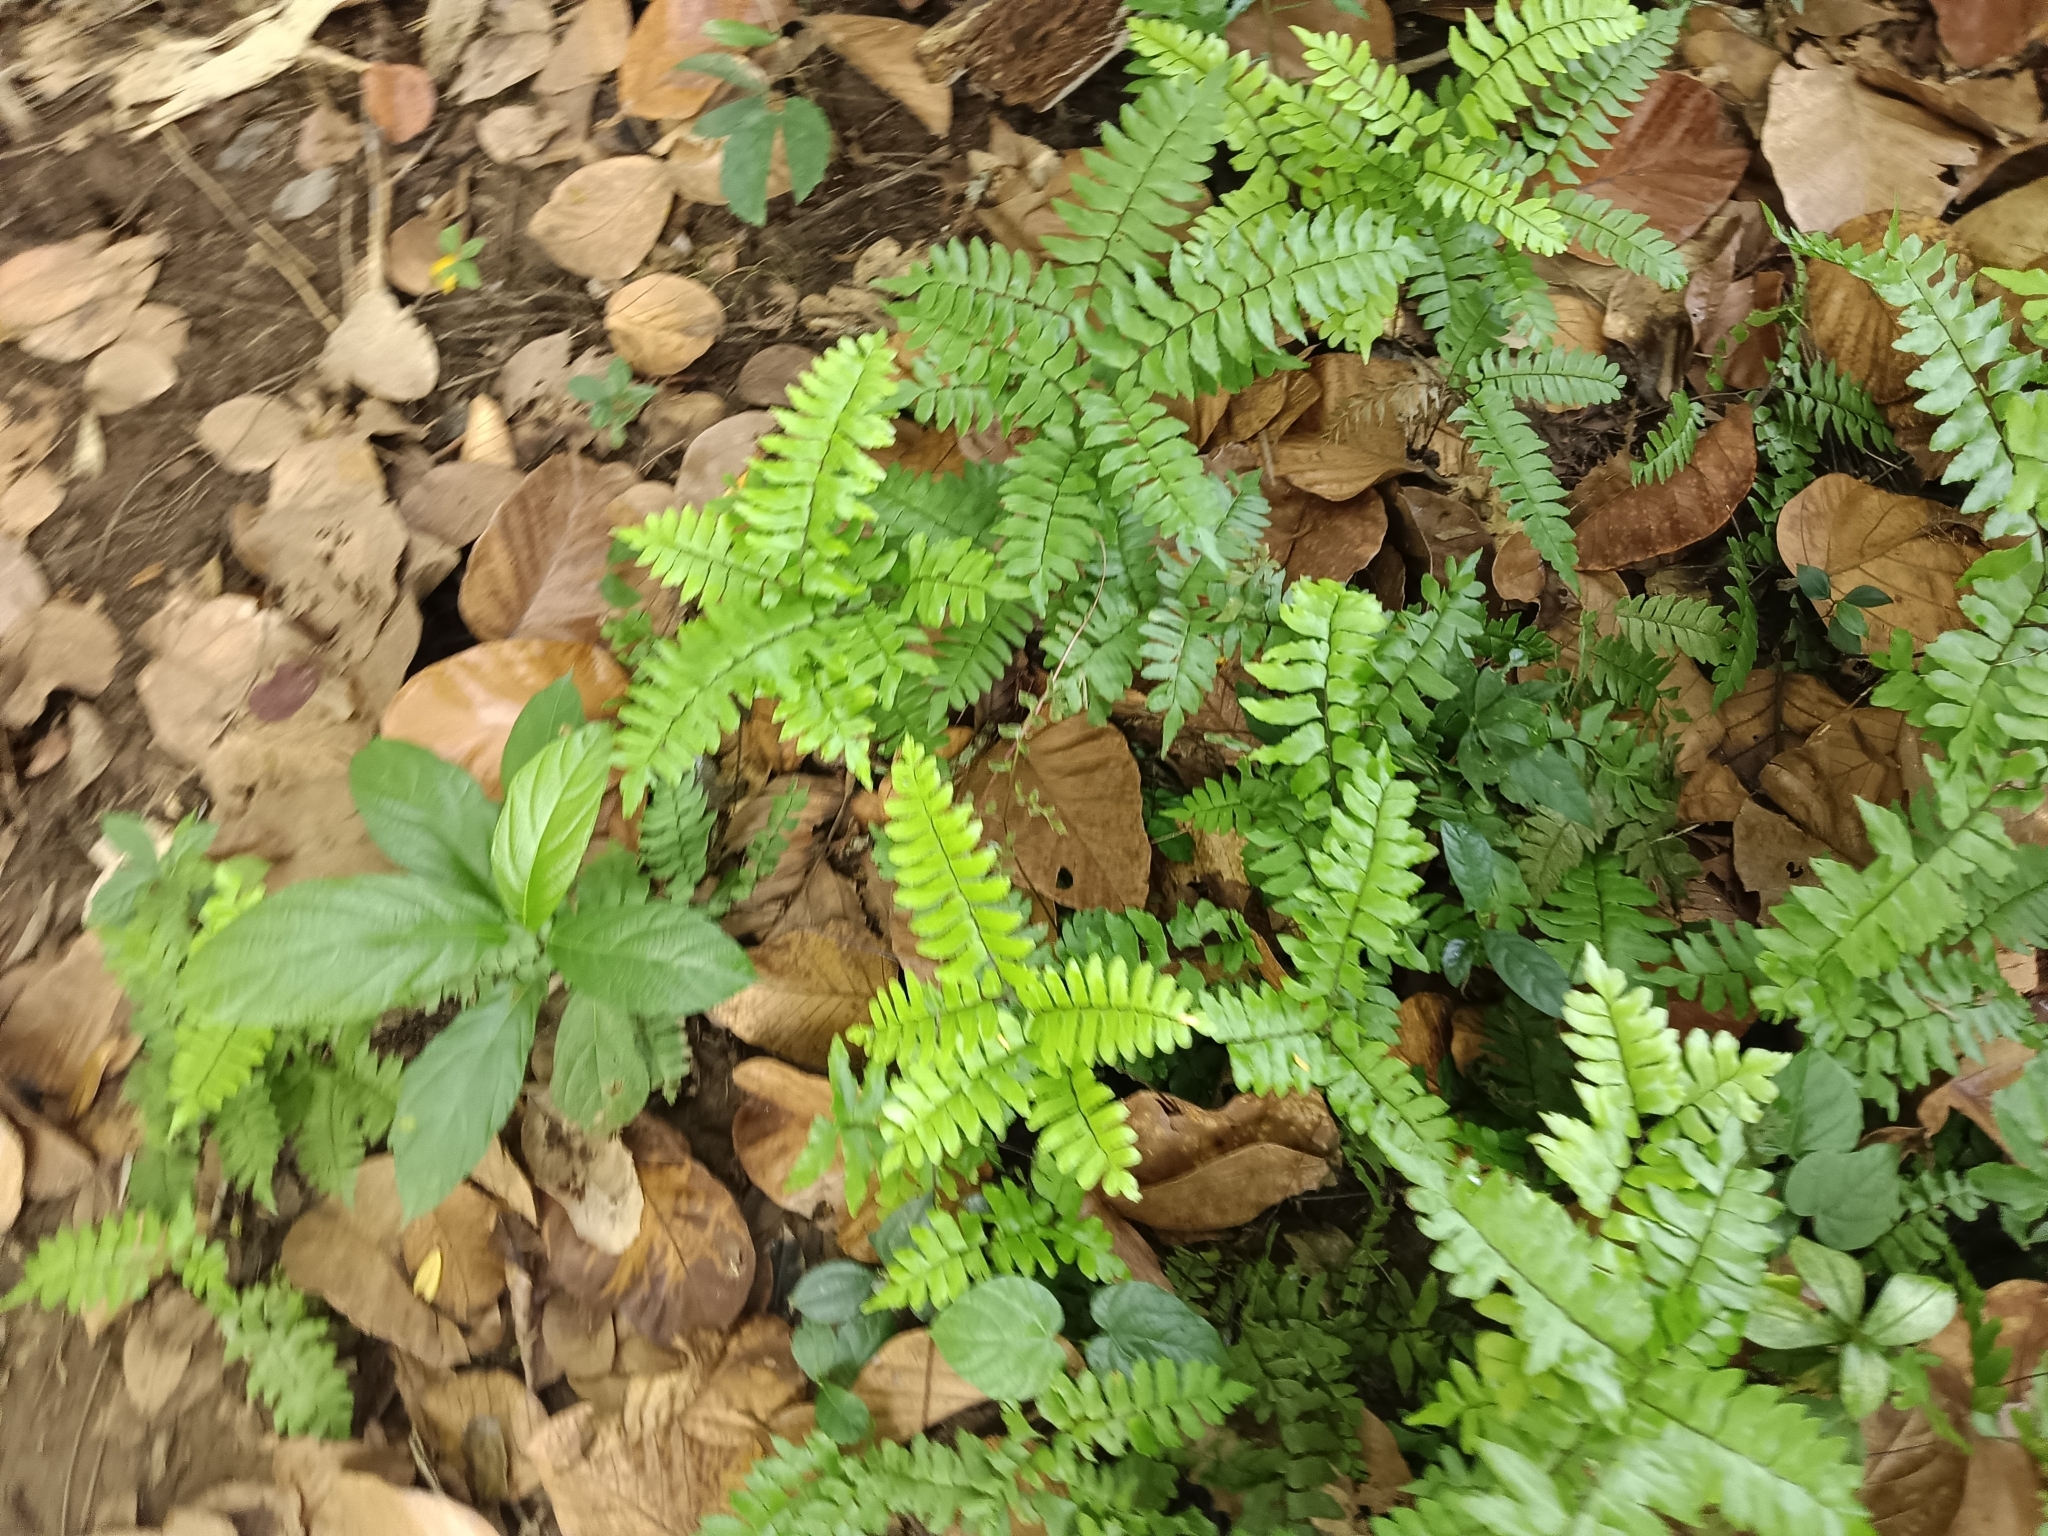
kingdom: Plantae
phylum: Tracheophyta
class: Polypodiopsida
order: Polypodiales
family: Pteridaceae
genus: Adiantum
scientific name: Adiantum latifolium
